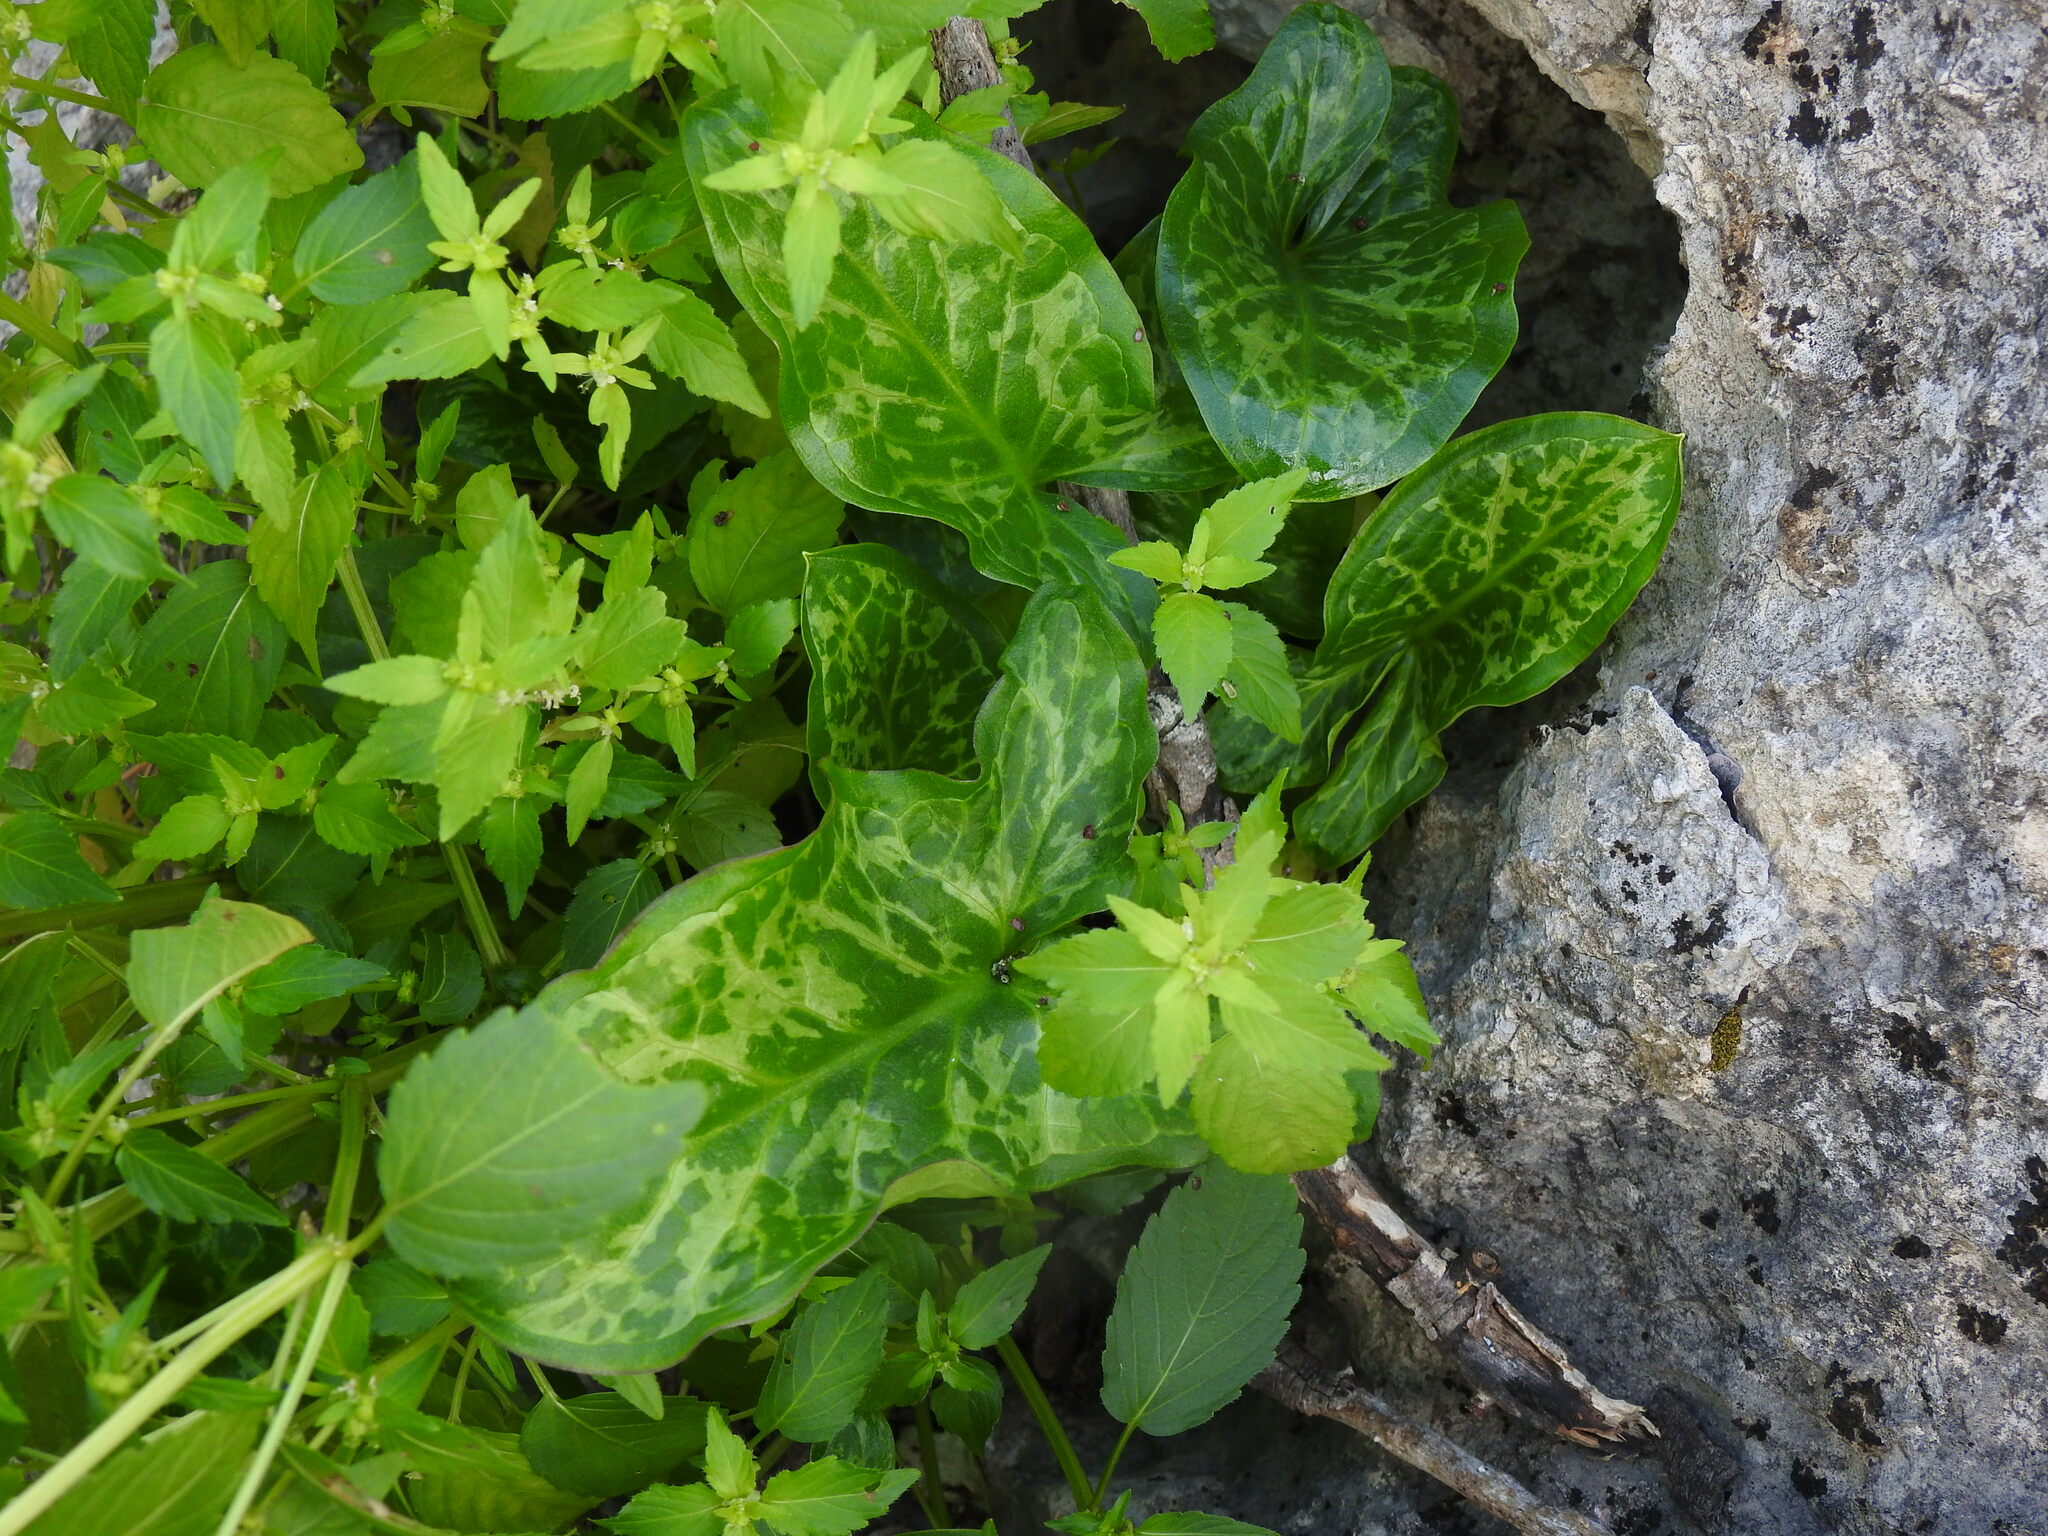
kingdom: Plantae
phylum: Tracheophyta
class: Liliopsida
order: Alismatales
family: Araceae
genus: Arum
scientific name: Arum italicum
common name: Italian lords-and-ladies
